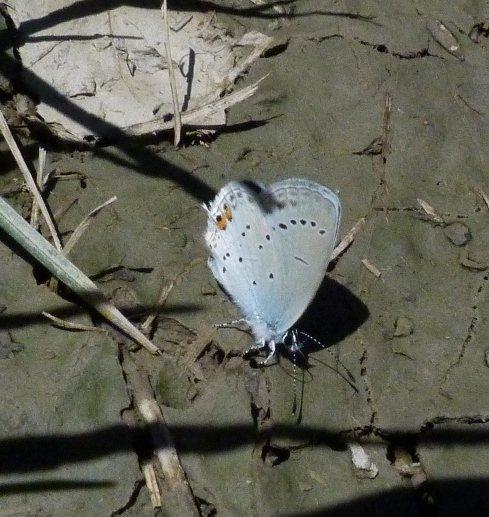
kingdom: Animalia
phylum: Arthropoda
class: Insecta
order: Lepidoptera
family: Lycaenidae
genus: Elkalyce
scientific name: Elkalyce argiades
